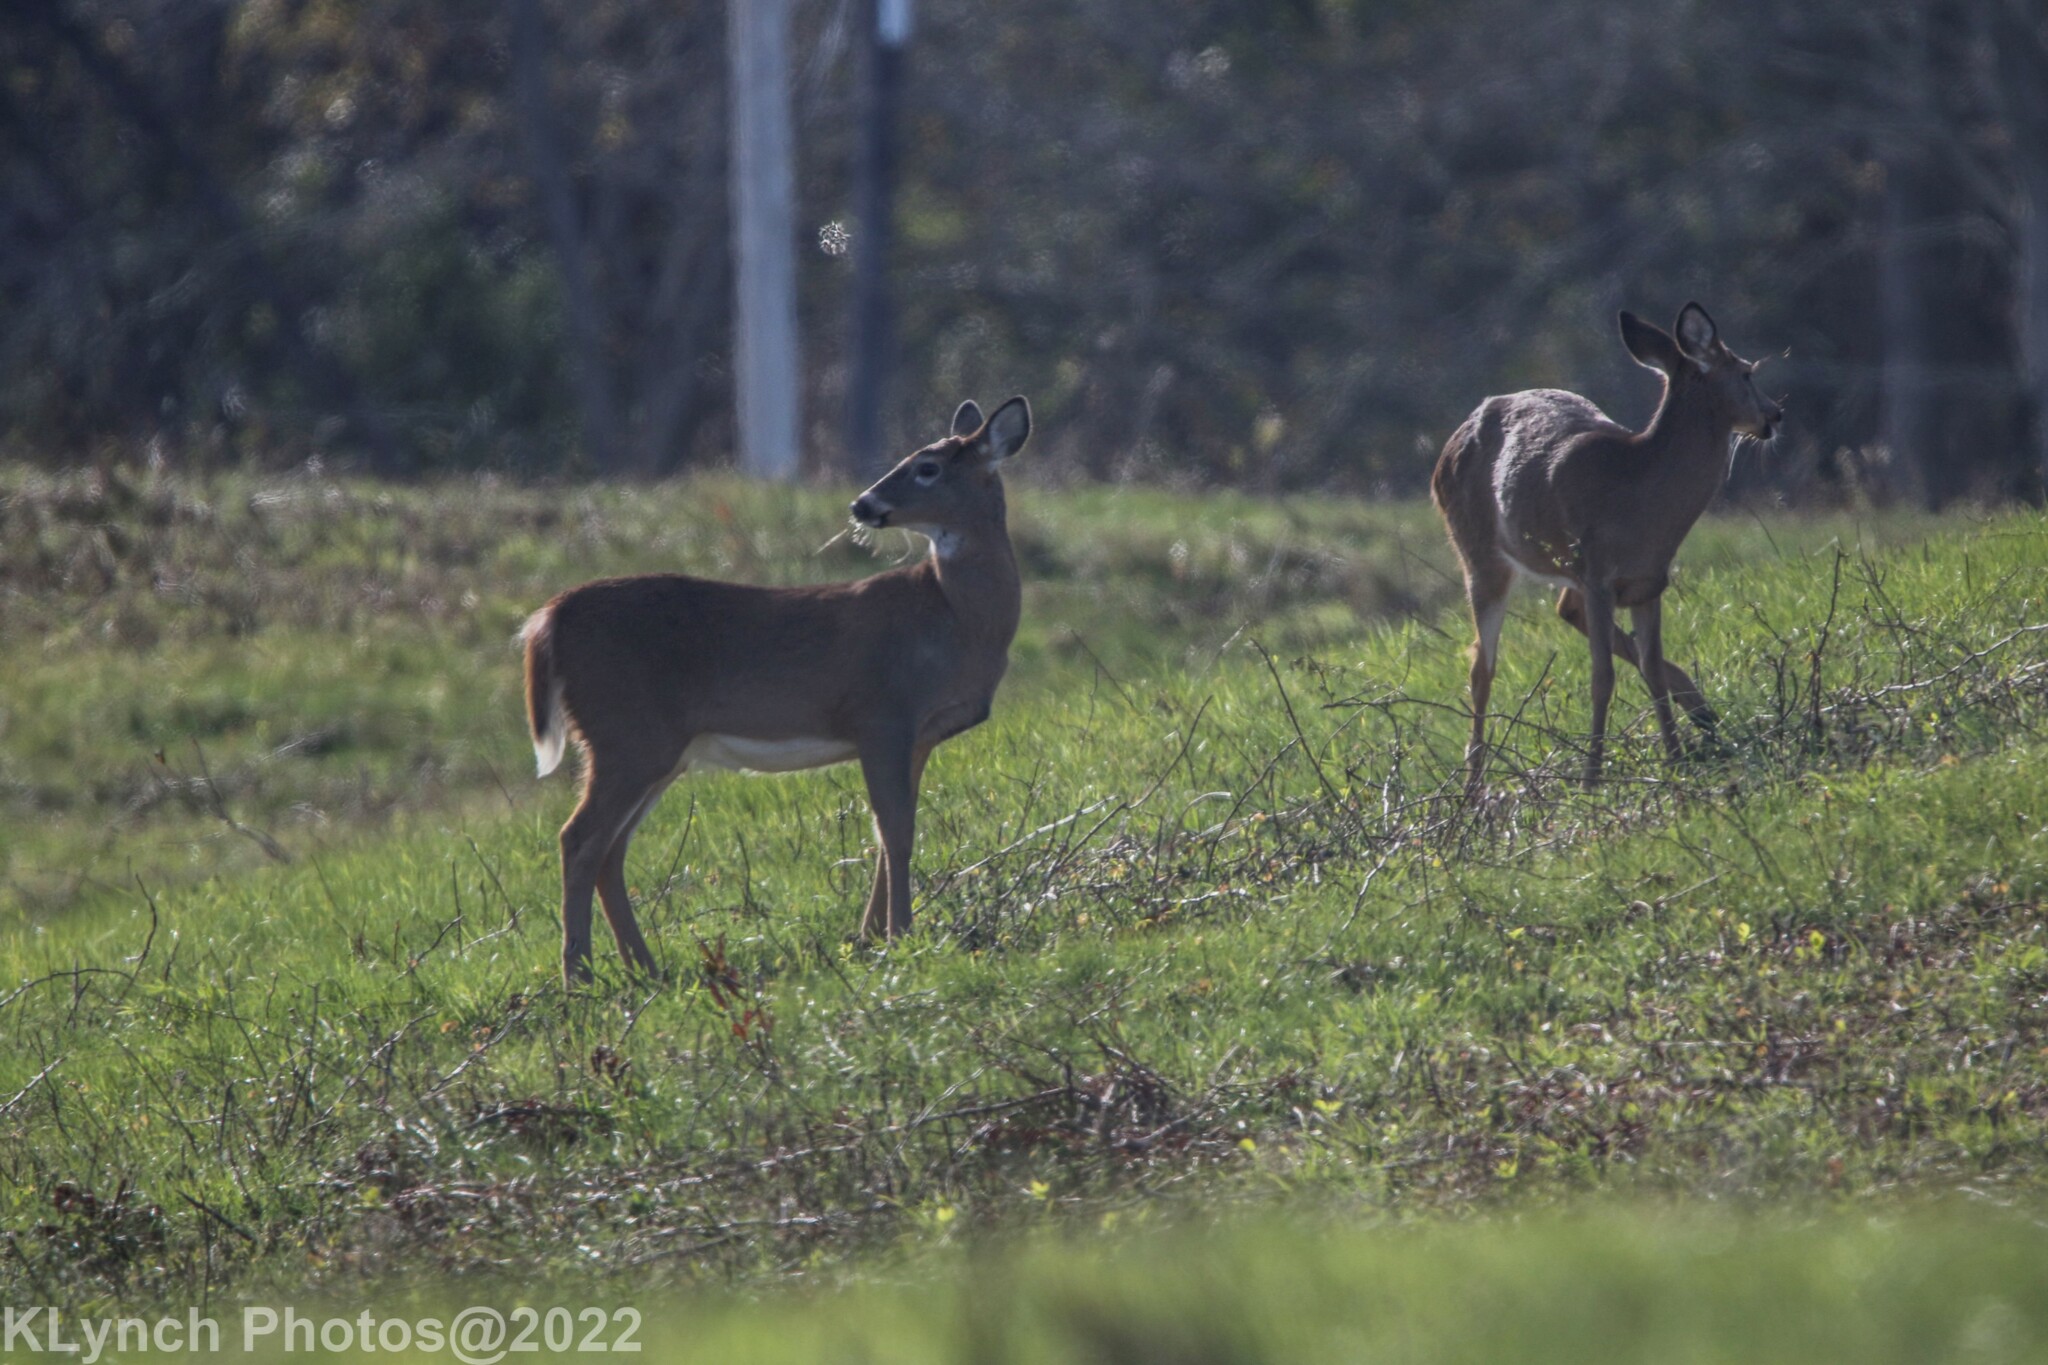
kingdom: Animalia
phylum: Chordata
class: Mammalia
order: Artiodactyla
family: Cervidae
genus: Odocoileus
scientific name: Odocoileus virginianus
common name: White-tailed deer
